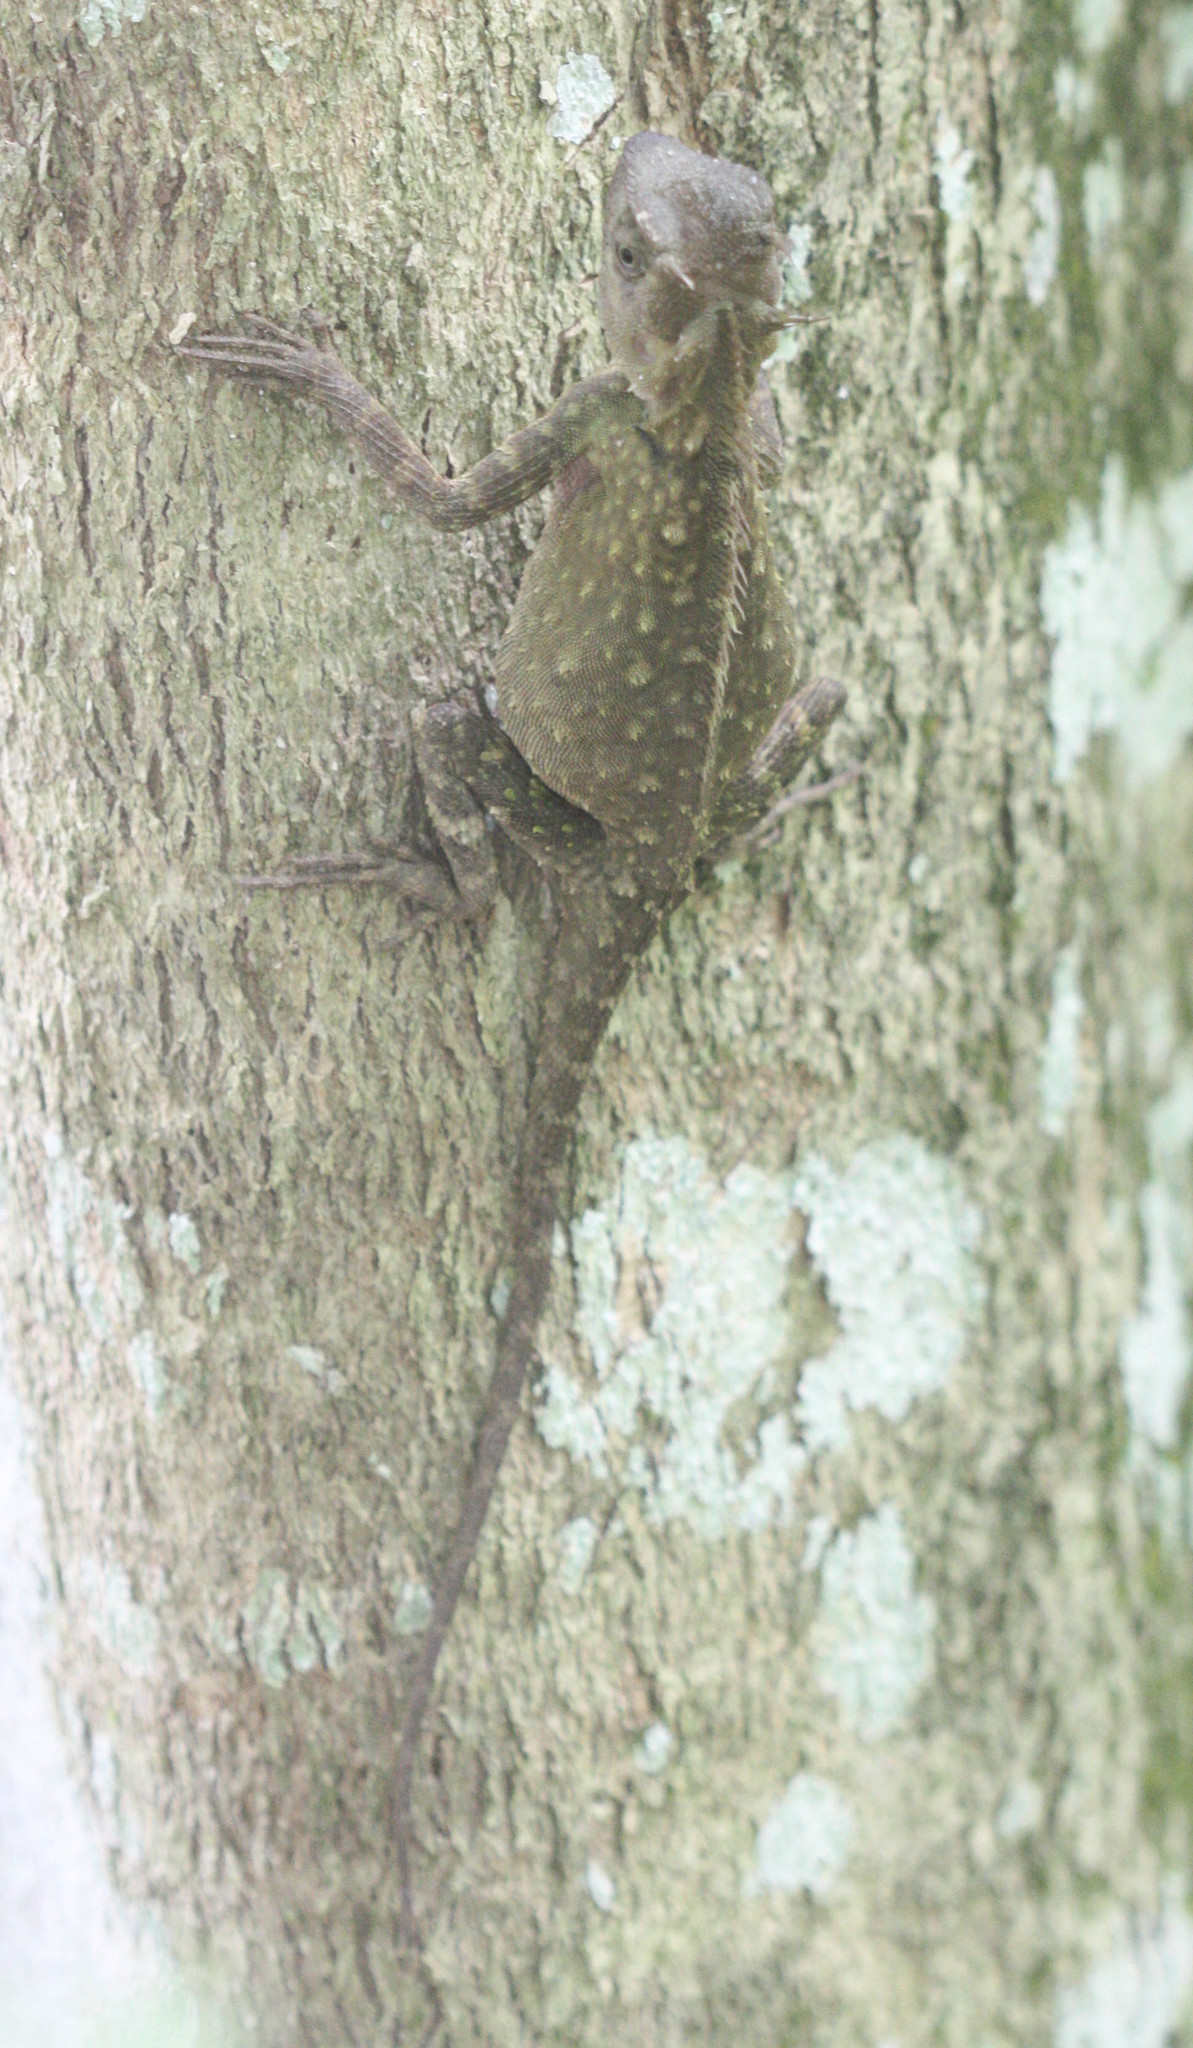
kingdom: Animalia
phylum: Chordata
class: Squamata
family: Agamidae
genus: Acanthosaura
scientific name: Acanthosaura armata
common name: Armored pricklenape
